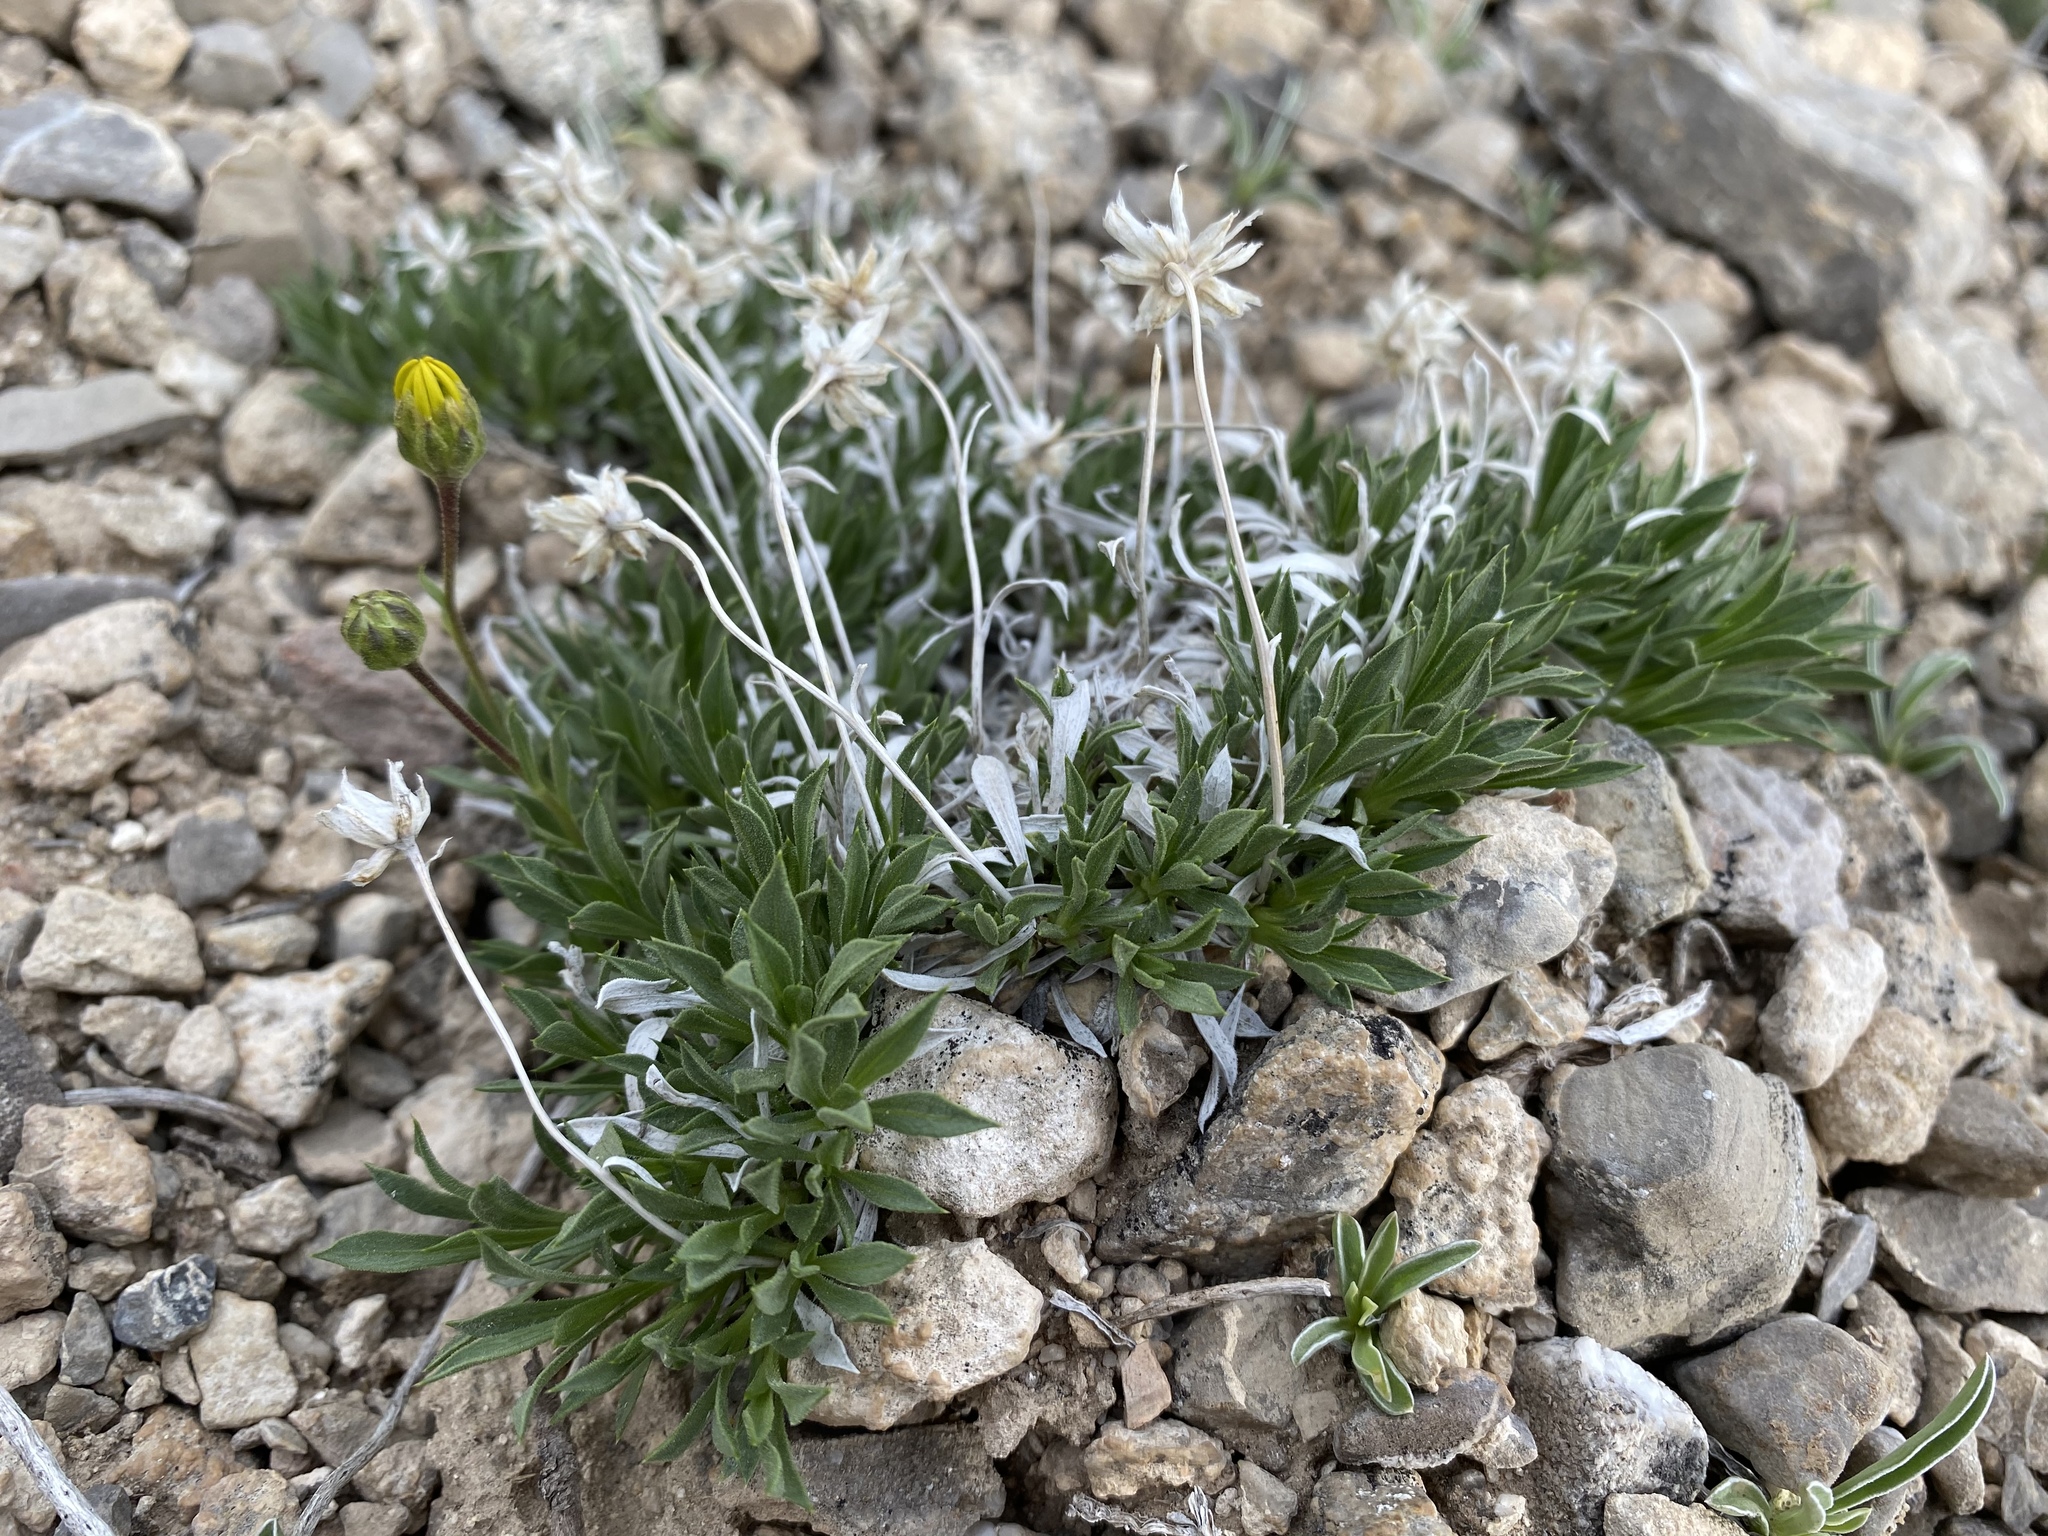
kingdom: Plantae
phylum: Tracheophyta
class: Magnoliopsida
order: Asterales
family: Asteraceae
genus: Stenotus
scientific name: Stenotus acaulis
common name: Stemless goldenweed
